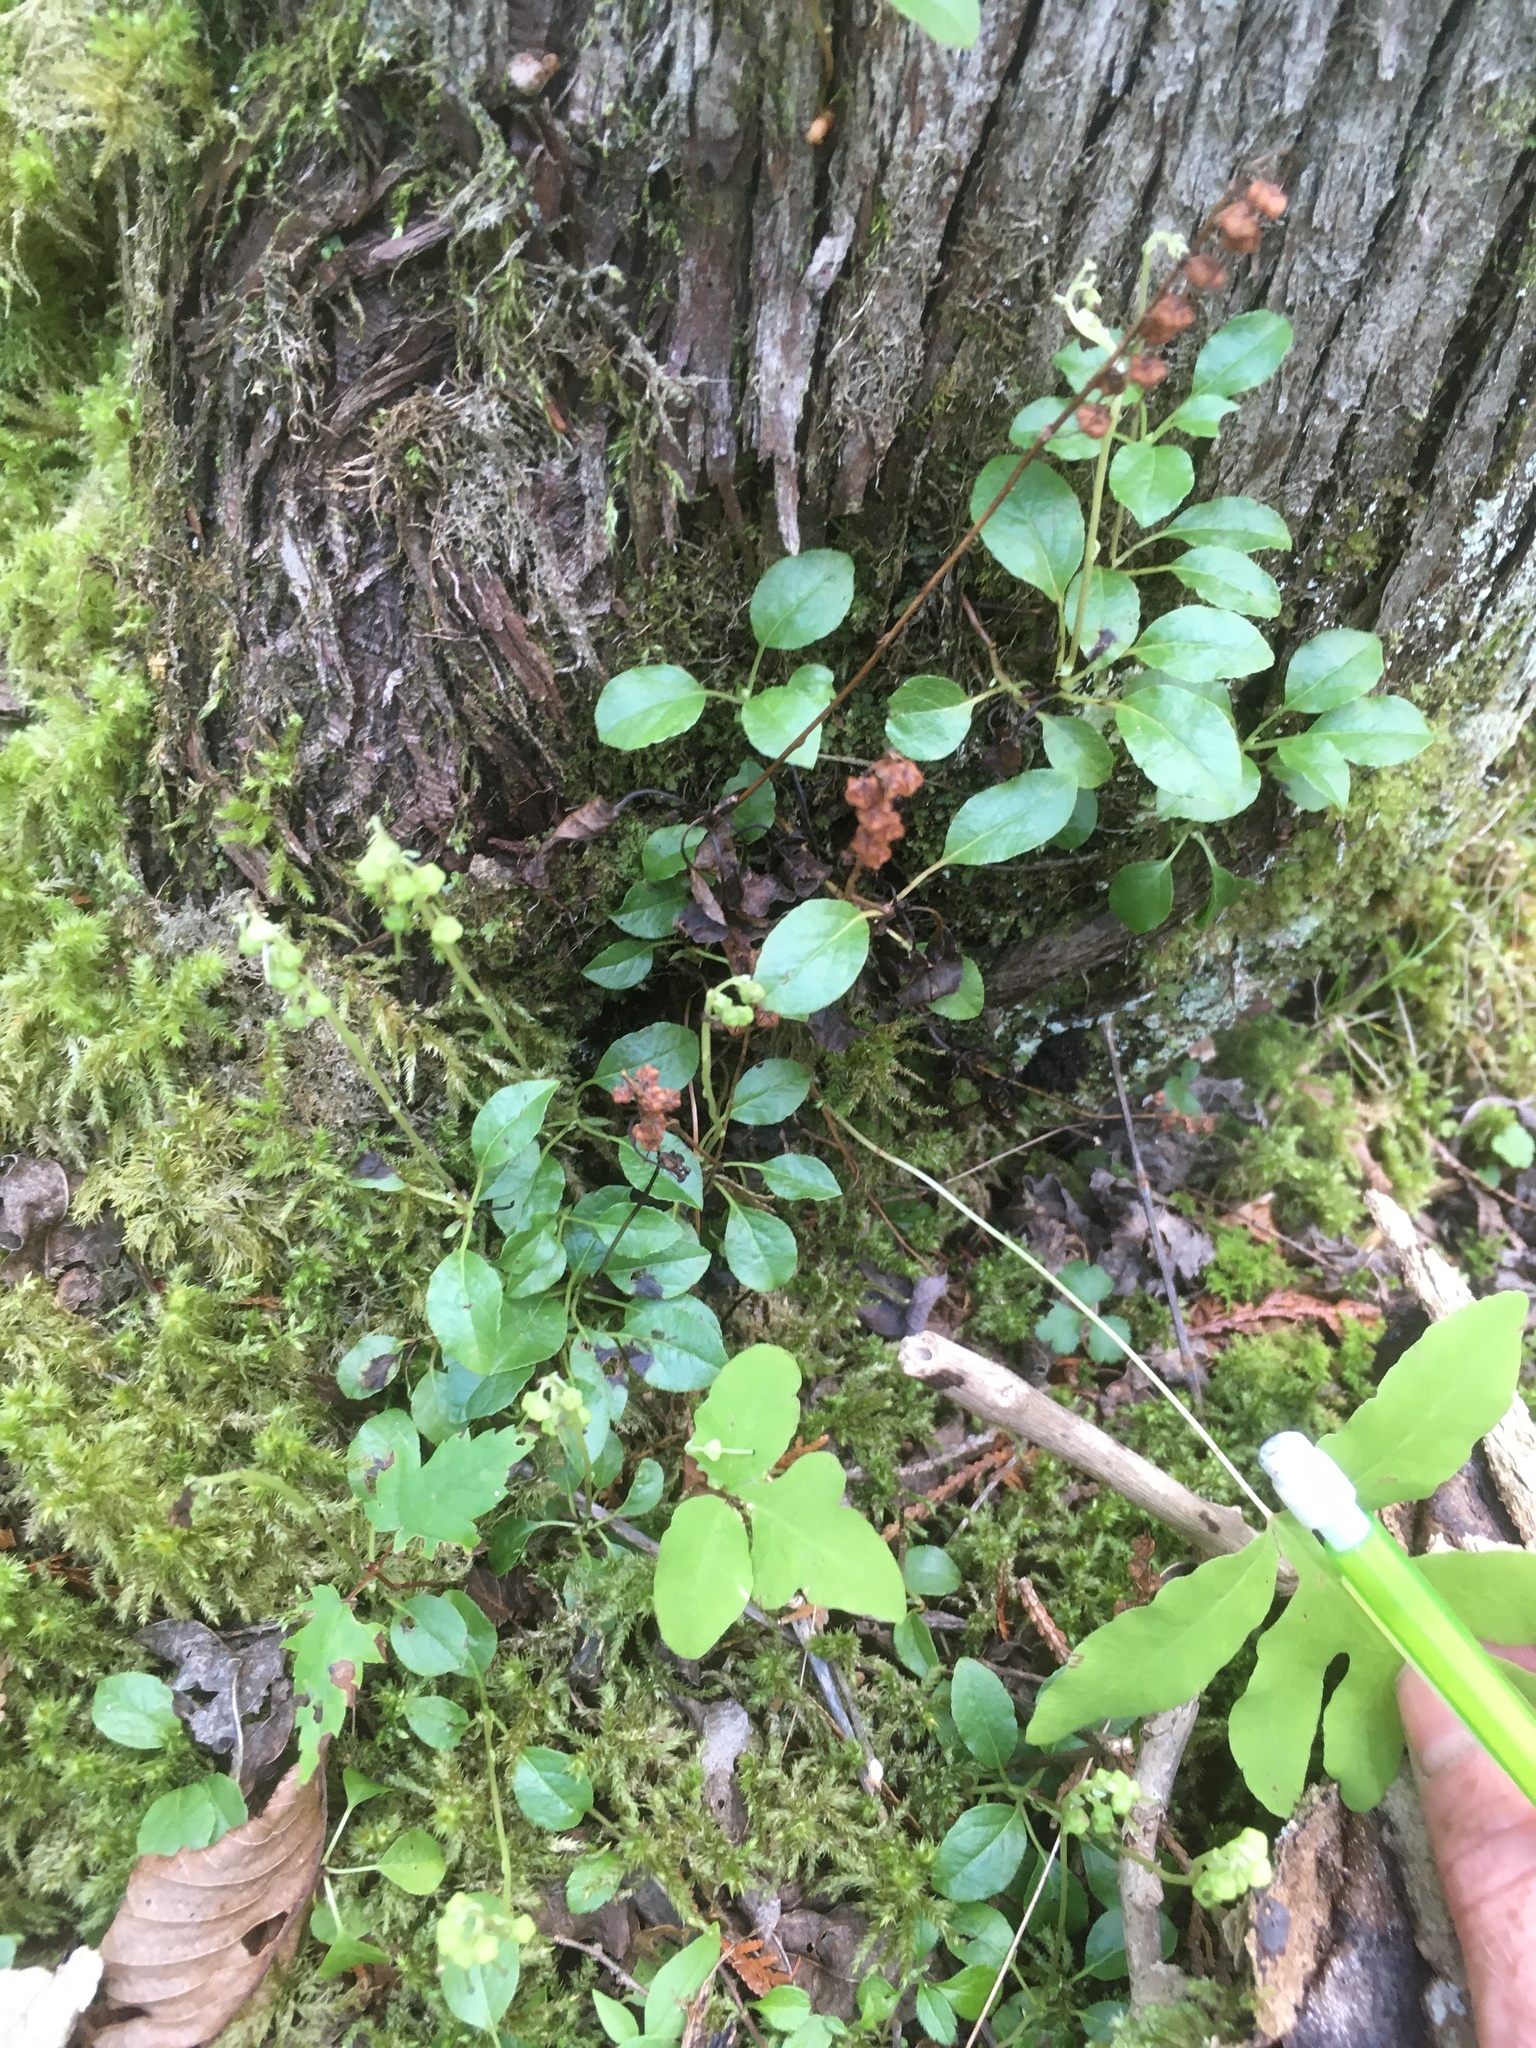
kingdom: Plantae
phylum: Tracheophyta
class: Magnoliopsida
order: Ericales
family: Ericaceae
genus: Orthilia
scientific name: Orthilia secunda
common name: One-sided orthilia
